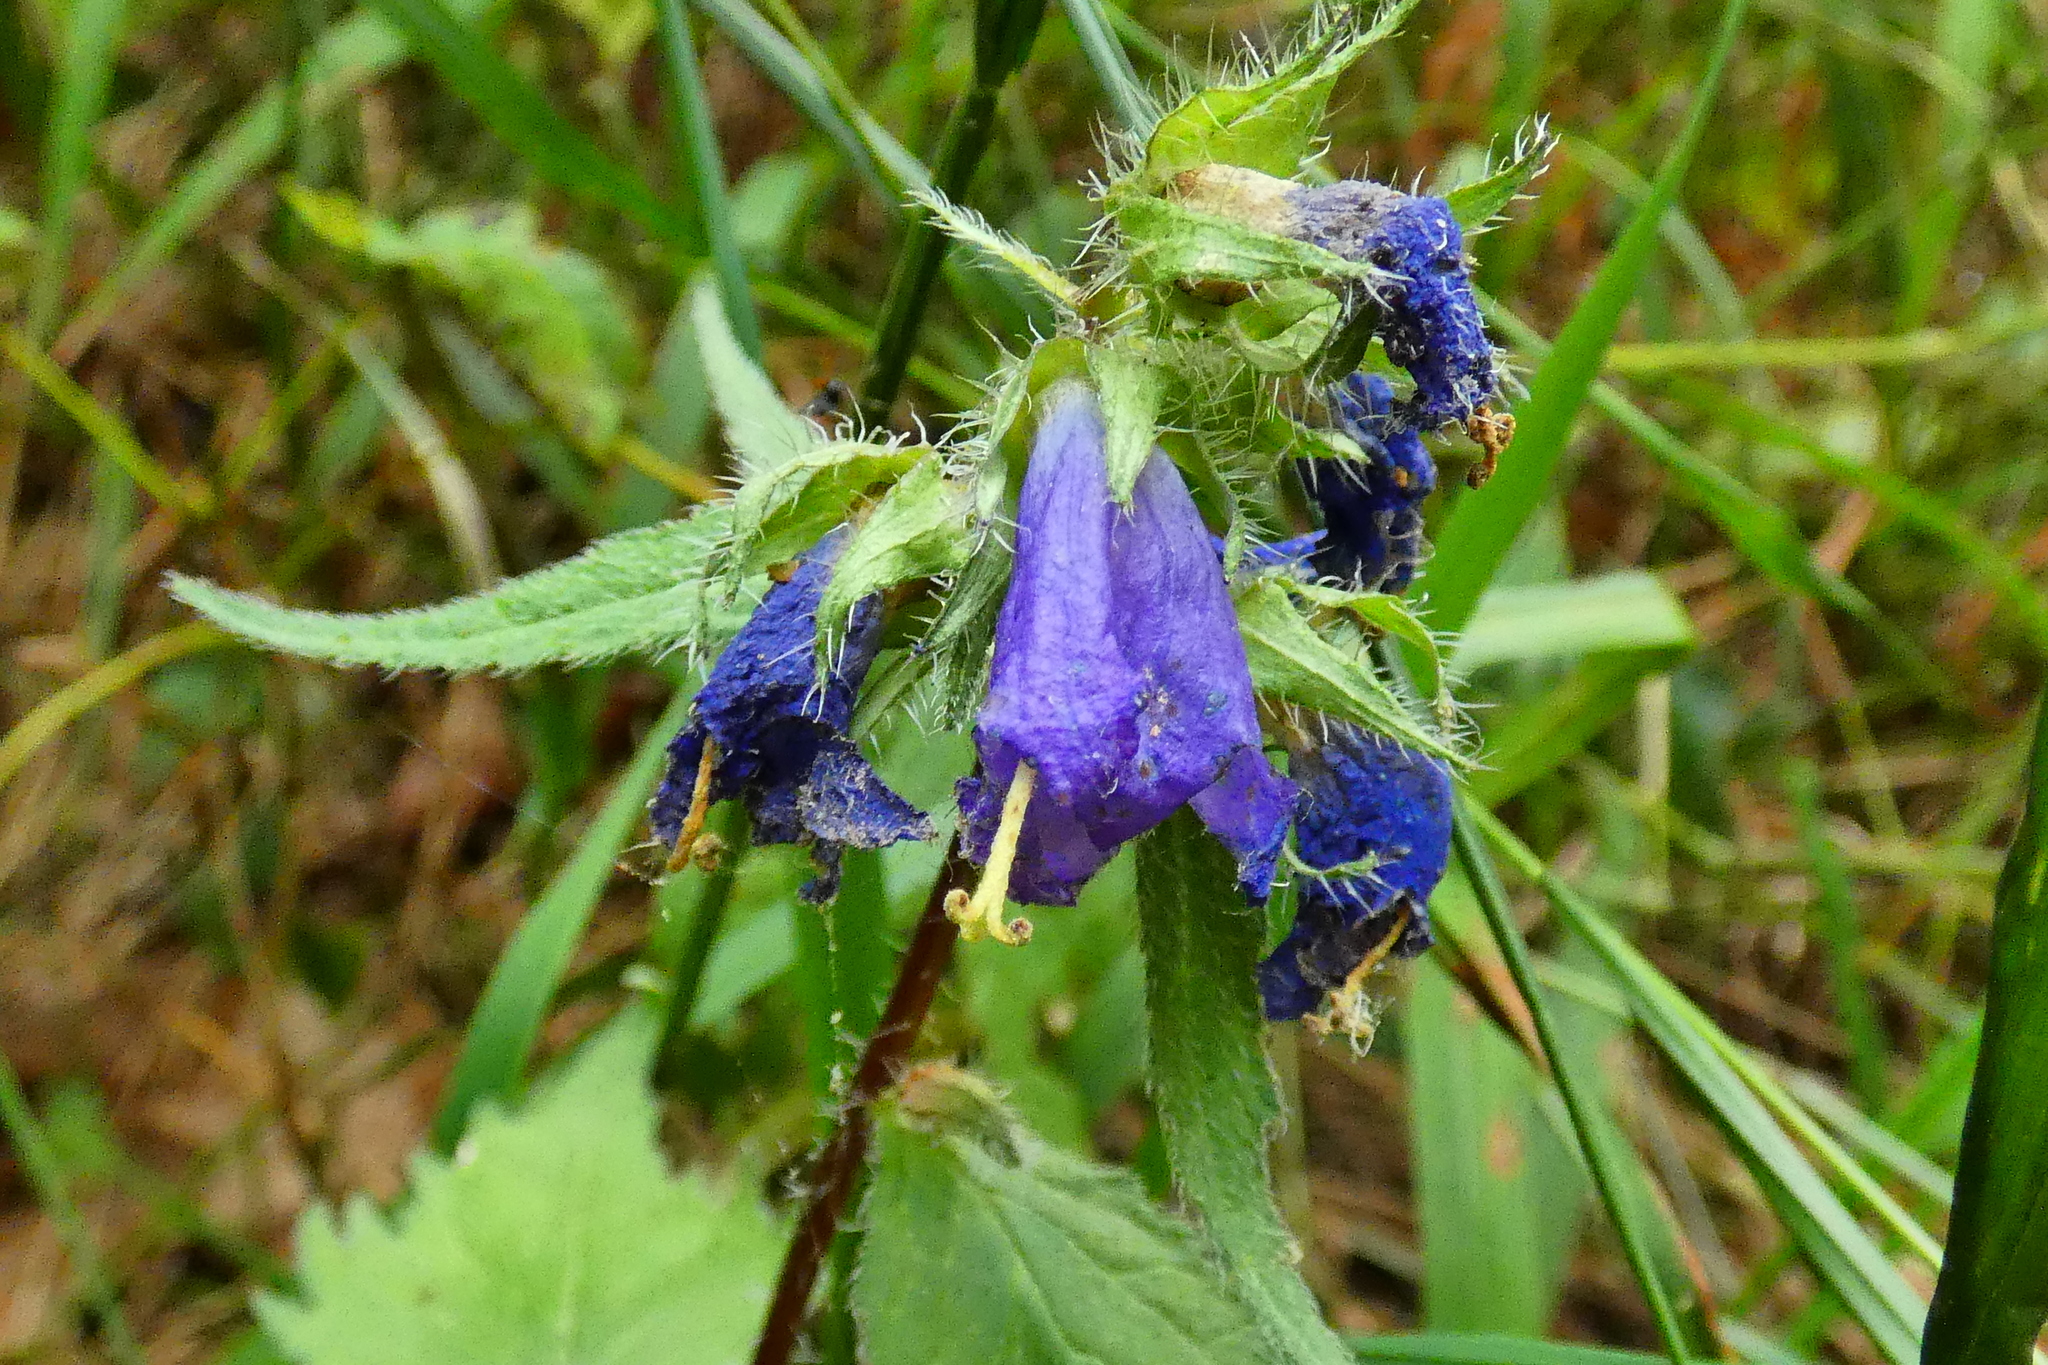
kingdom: Plantae
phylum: Tracheophyta
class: Magnoliopsida
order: Asterales
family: Campanulaceae
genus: Campanula
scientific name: Campanula trachelium
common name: Nettle-leaved bellflower
